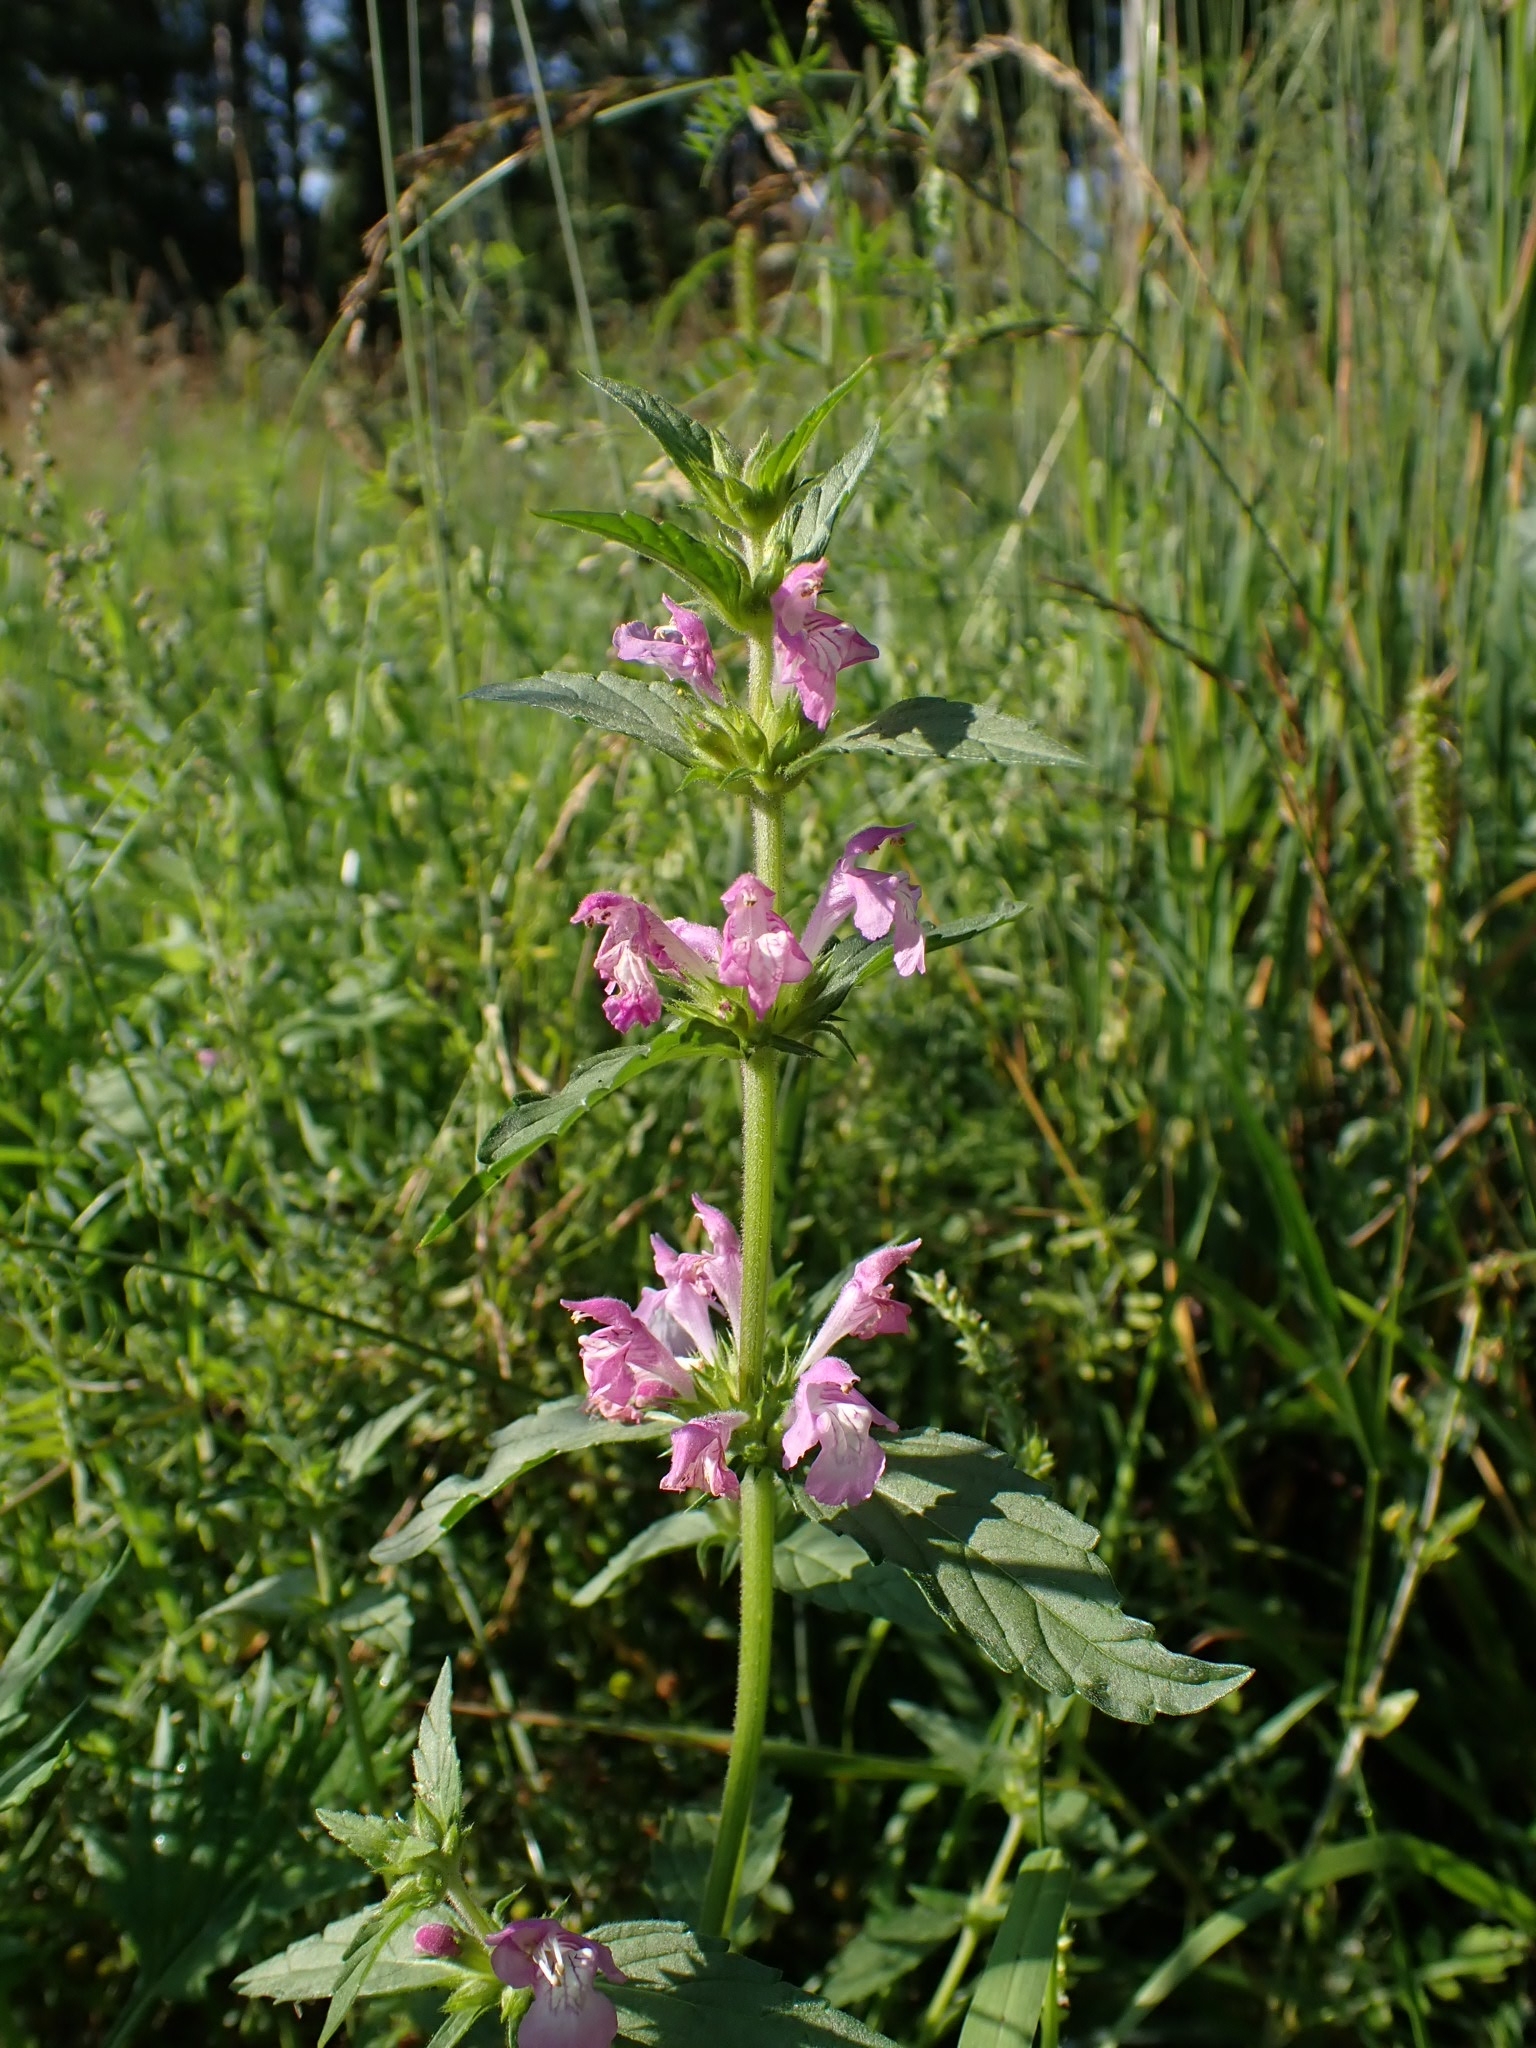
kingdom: Plantae
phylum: Tracheophyta
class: Magnoliopsida
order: Lamiales
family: Lamiaceae
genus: Galeopsis
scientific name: Galeopsis ladanum
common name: Broad-leaved hemp-nettle
